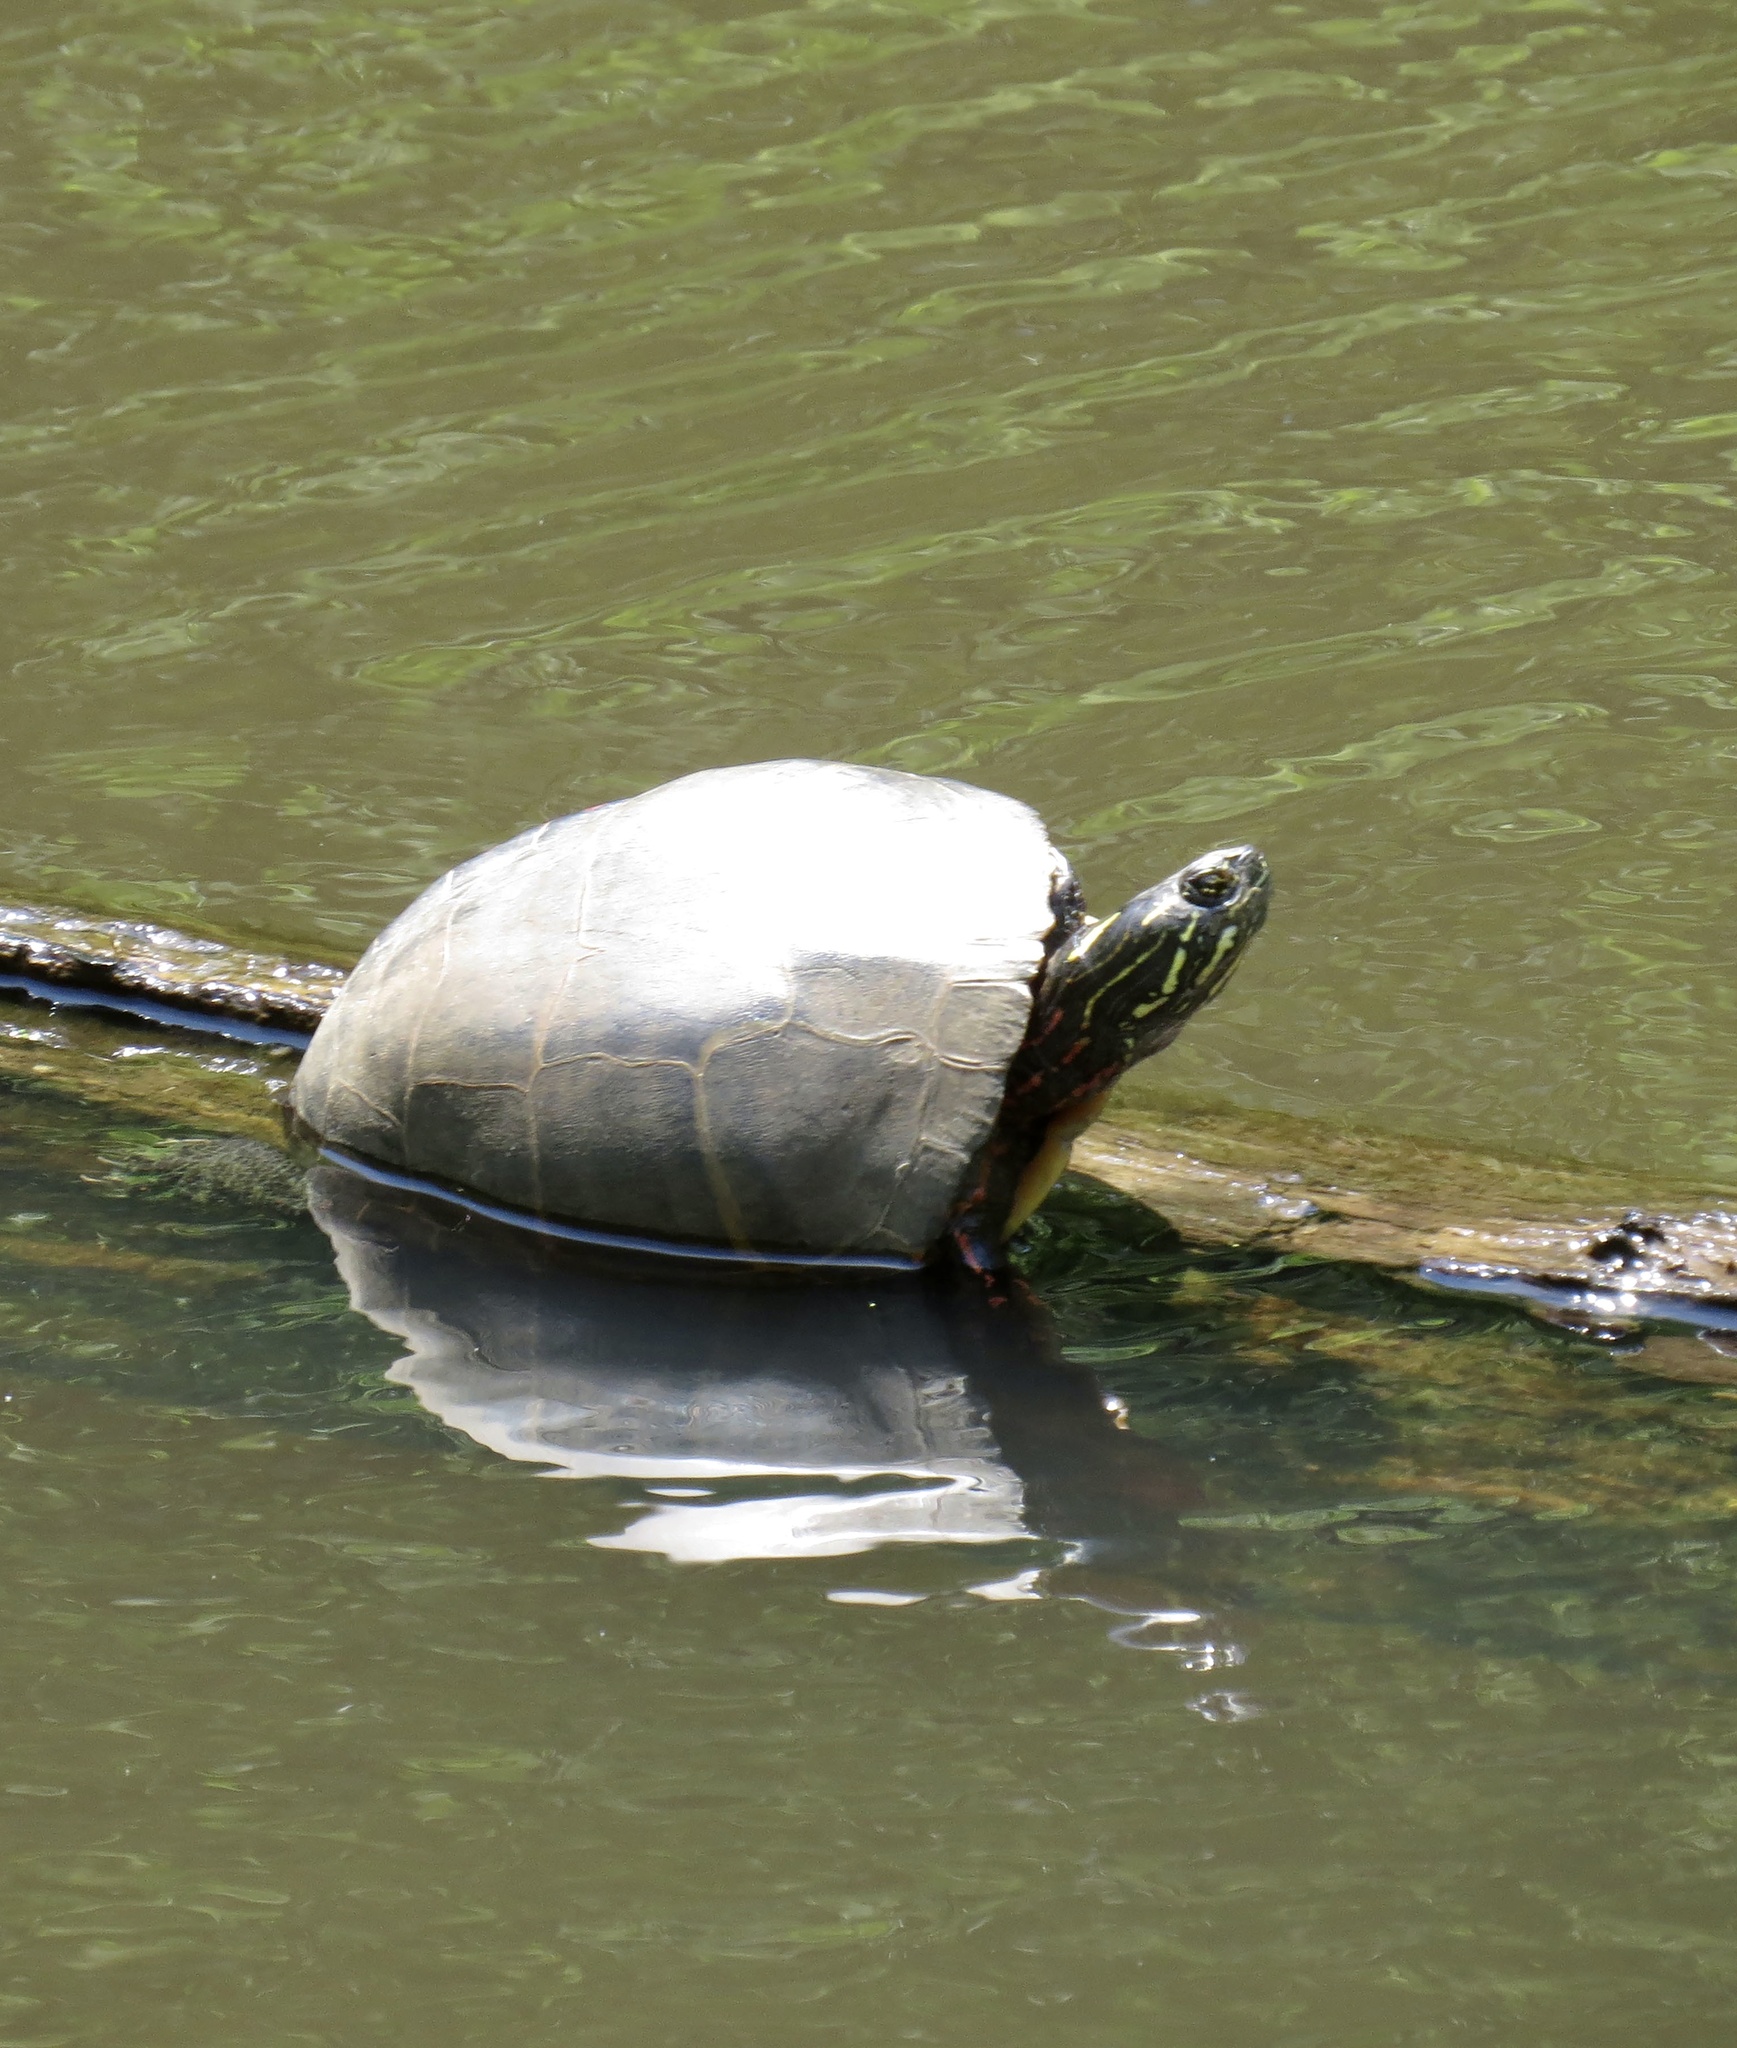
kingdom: Animalia
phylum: Chordata
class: Testudines
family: Emydidae
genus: Chrysemys
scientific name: Chrysemys picta
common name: Painted turtle
